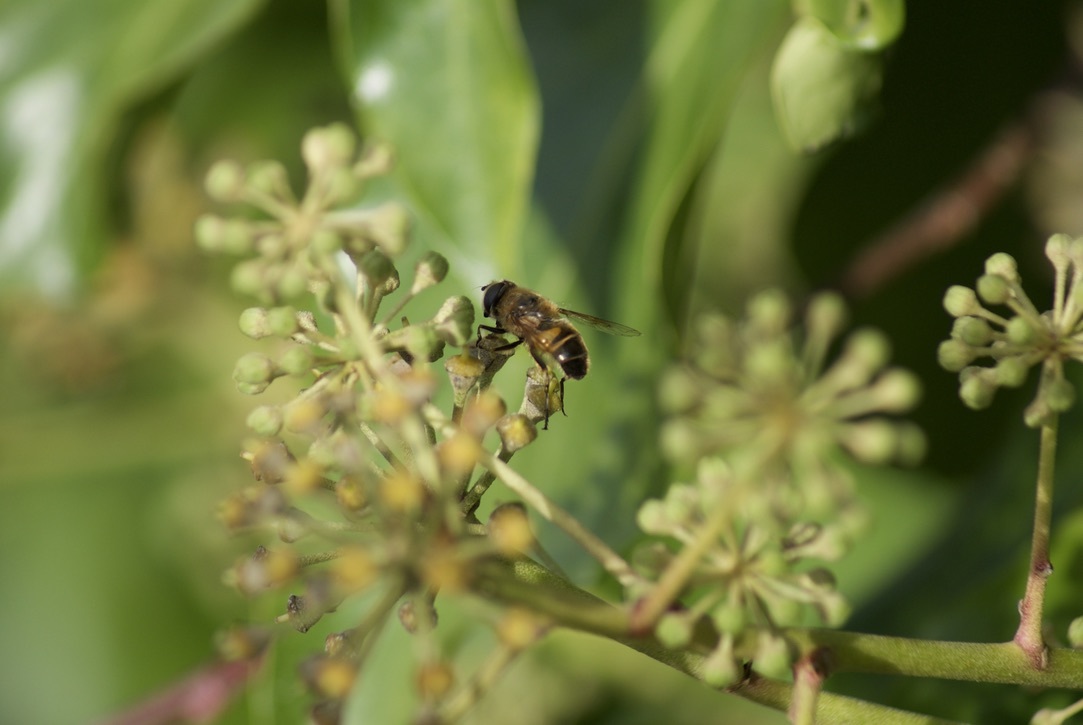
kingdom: Animalia
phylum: Arthropoda
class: Insecta
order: Diptera
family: Syrphidae
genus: Eristalis
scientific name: Eristalis tenax
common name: Drone fly
